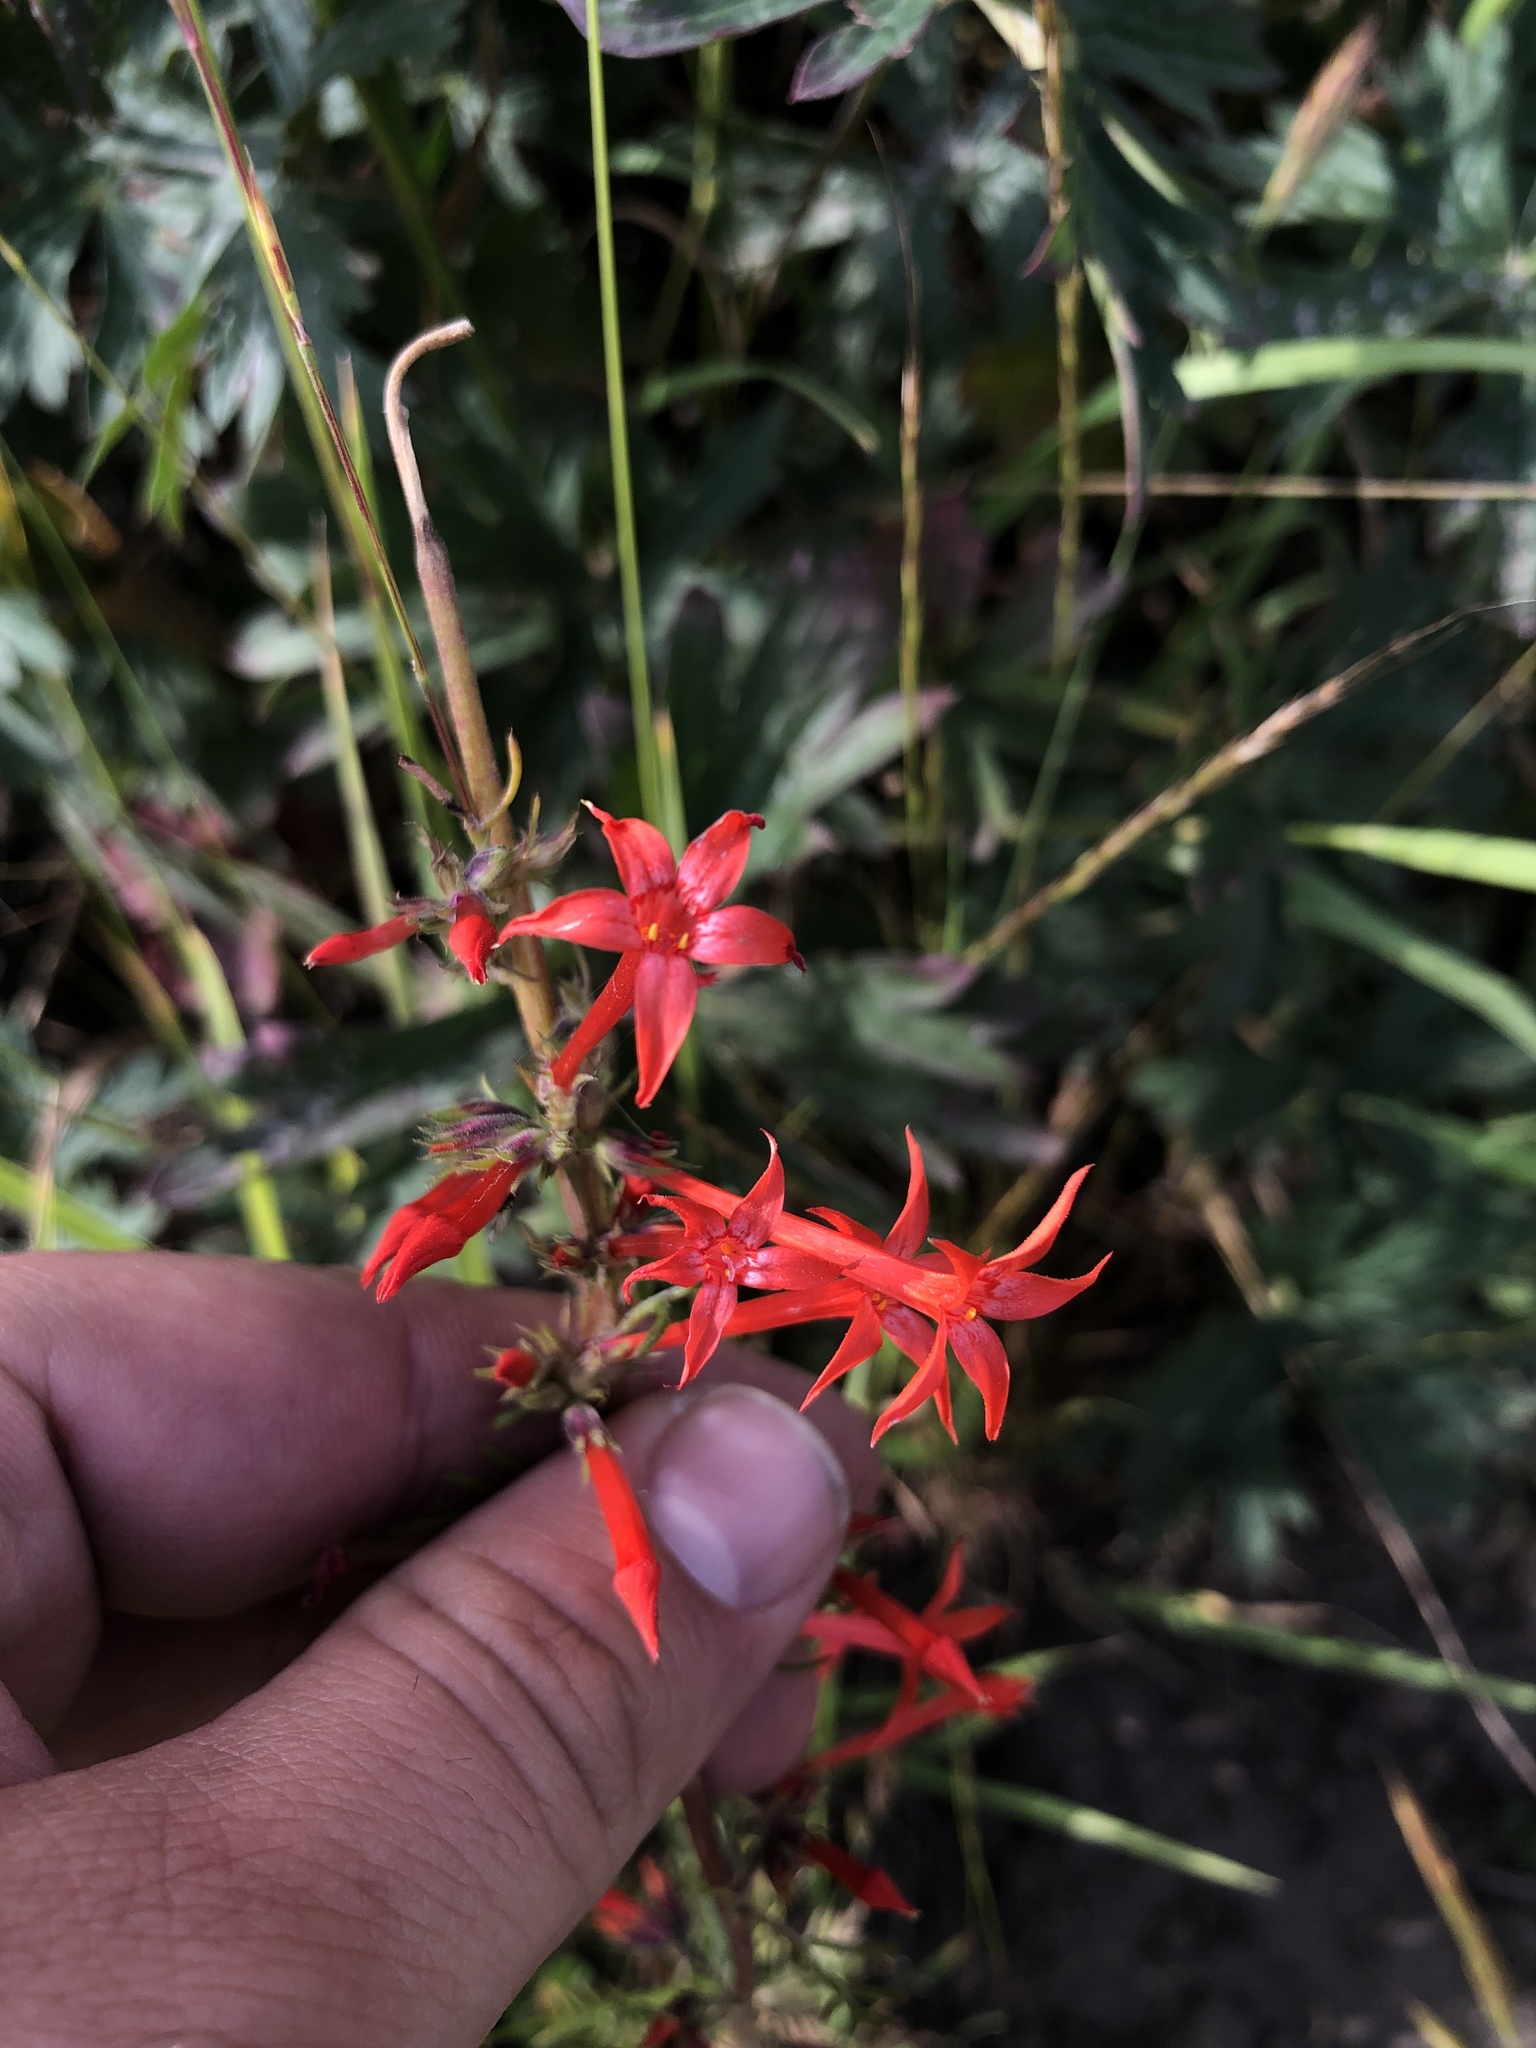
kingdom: Plantae
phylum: Tracheophyta
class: Magnoliopsida
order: Ericales
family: Polemoniaceae
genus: Ipomopsis
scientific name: Ipomopsis aggregata
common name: Scarlet gilia
